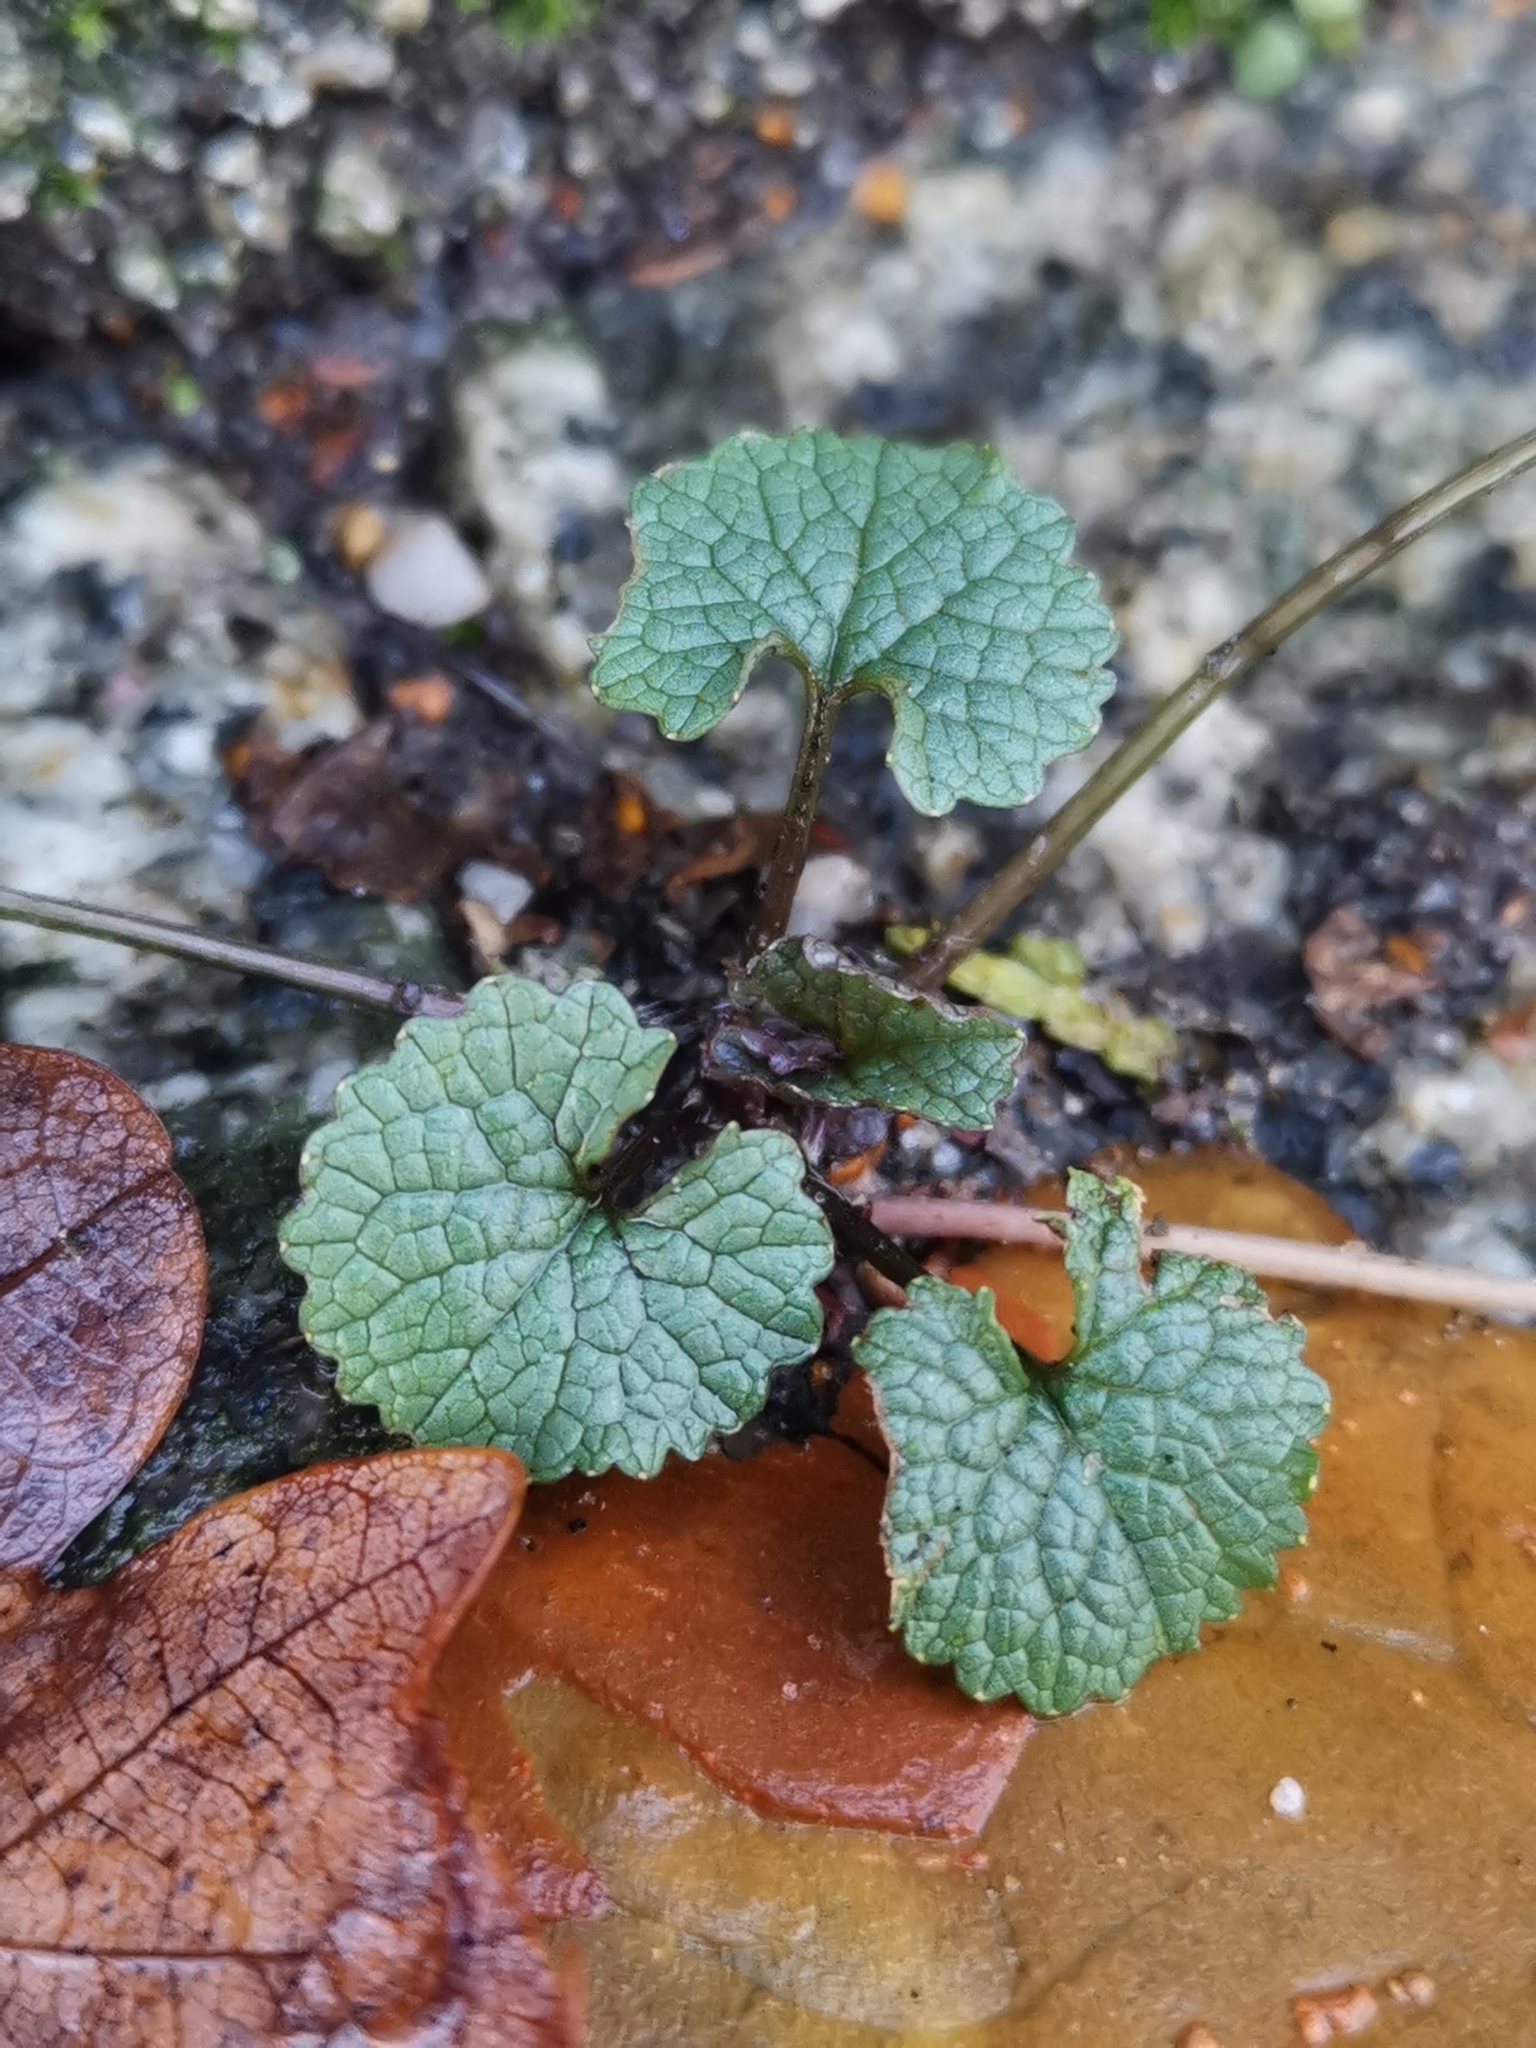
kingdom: Plantae
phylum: Tracheophyta
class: Magnoliopsida
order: Brassicales
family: Brassicaceae
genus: Alliaria
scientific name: Alliaria petiolata
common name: Garlic mustard
